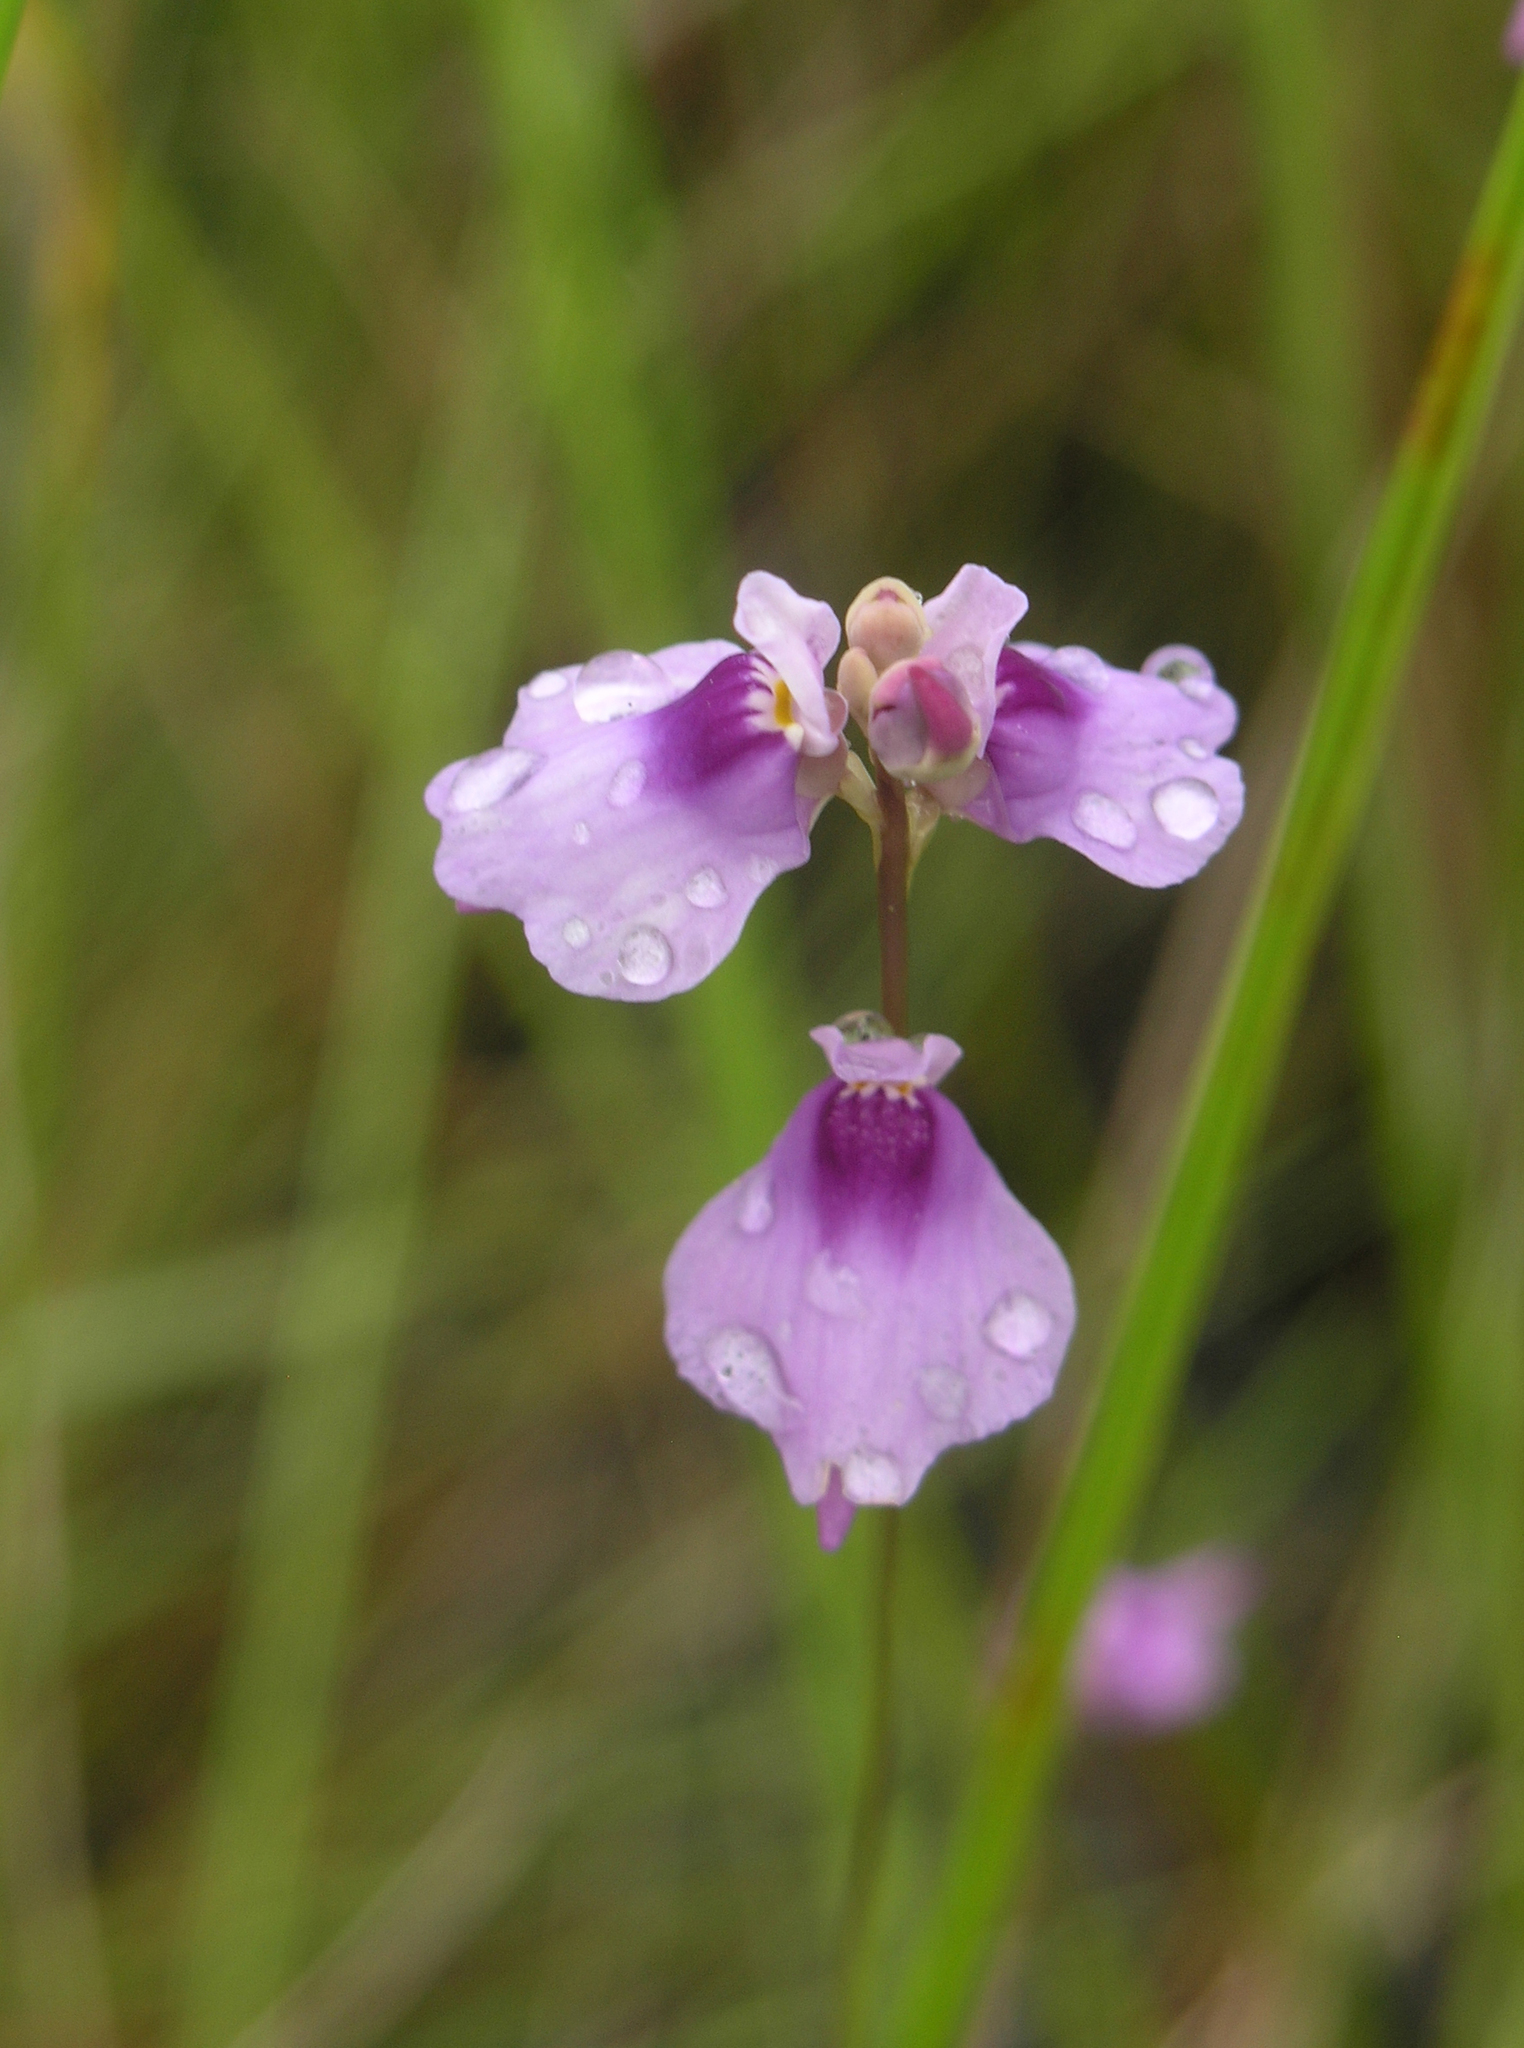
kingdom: Plantae
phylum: Tracheophyta
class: Magnoliopsida
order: Lamiales
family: Lentibulariaceae
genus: Utricularia
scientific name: Utricularia caerulea
